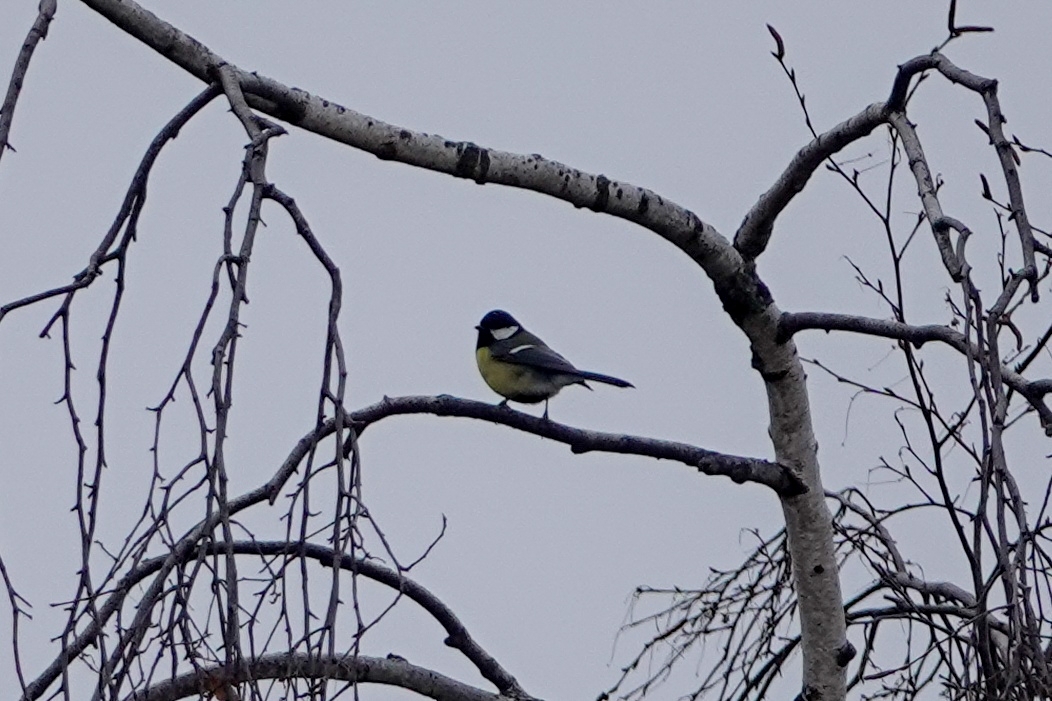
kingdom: Animalia
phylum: Chordata
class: Aves
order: Passeriformes
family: Paridae
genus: Parus
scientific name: Parus major
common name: Great tit
